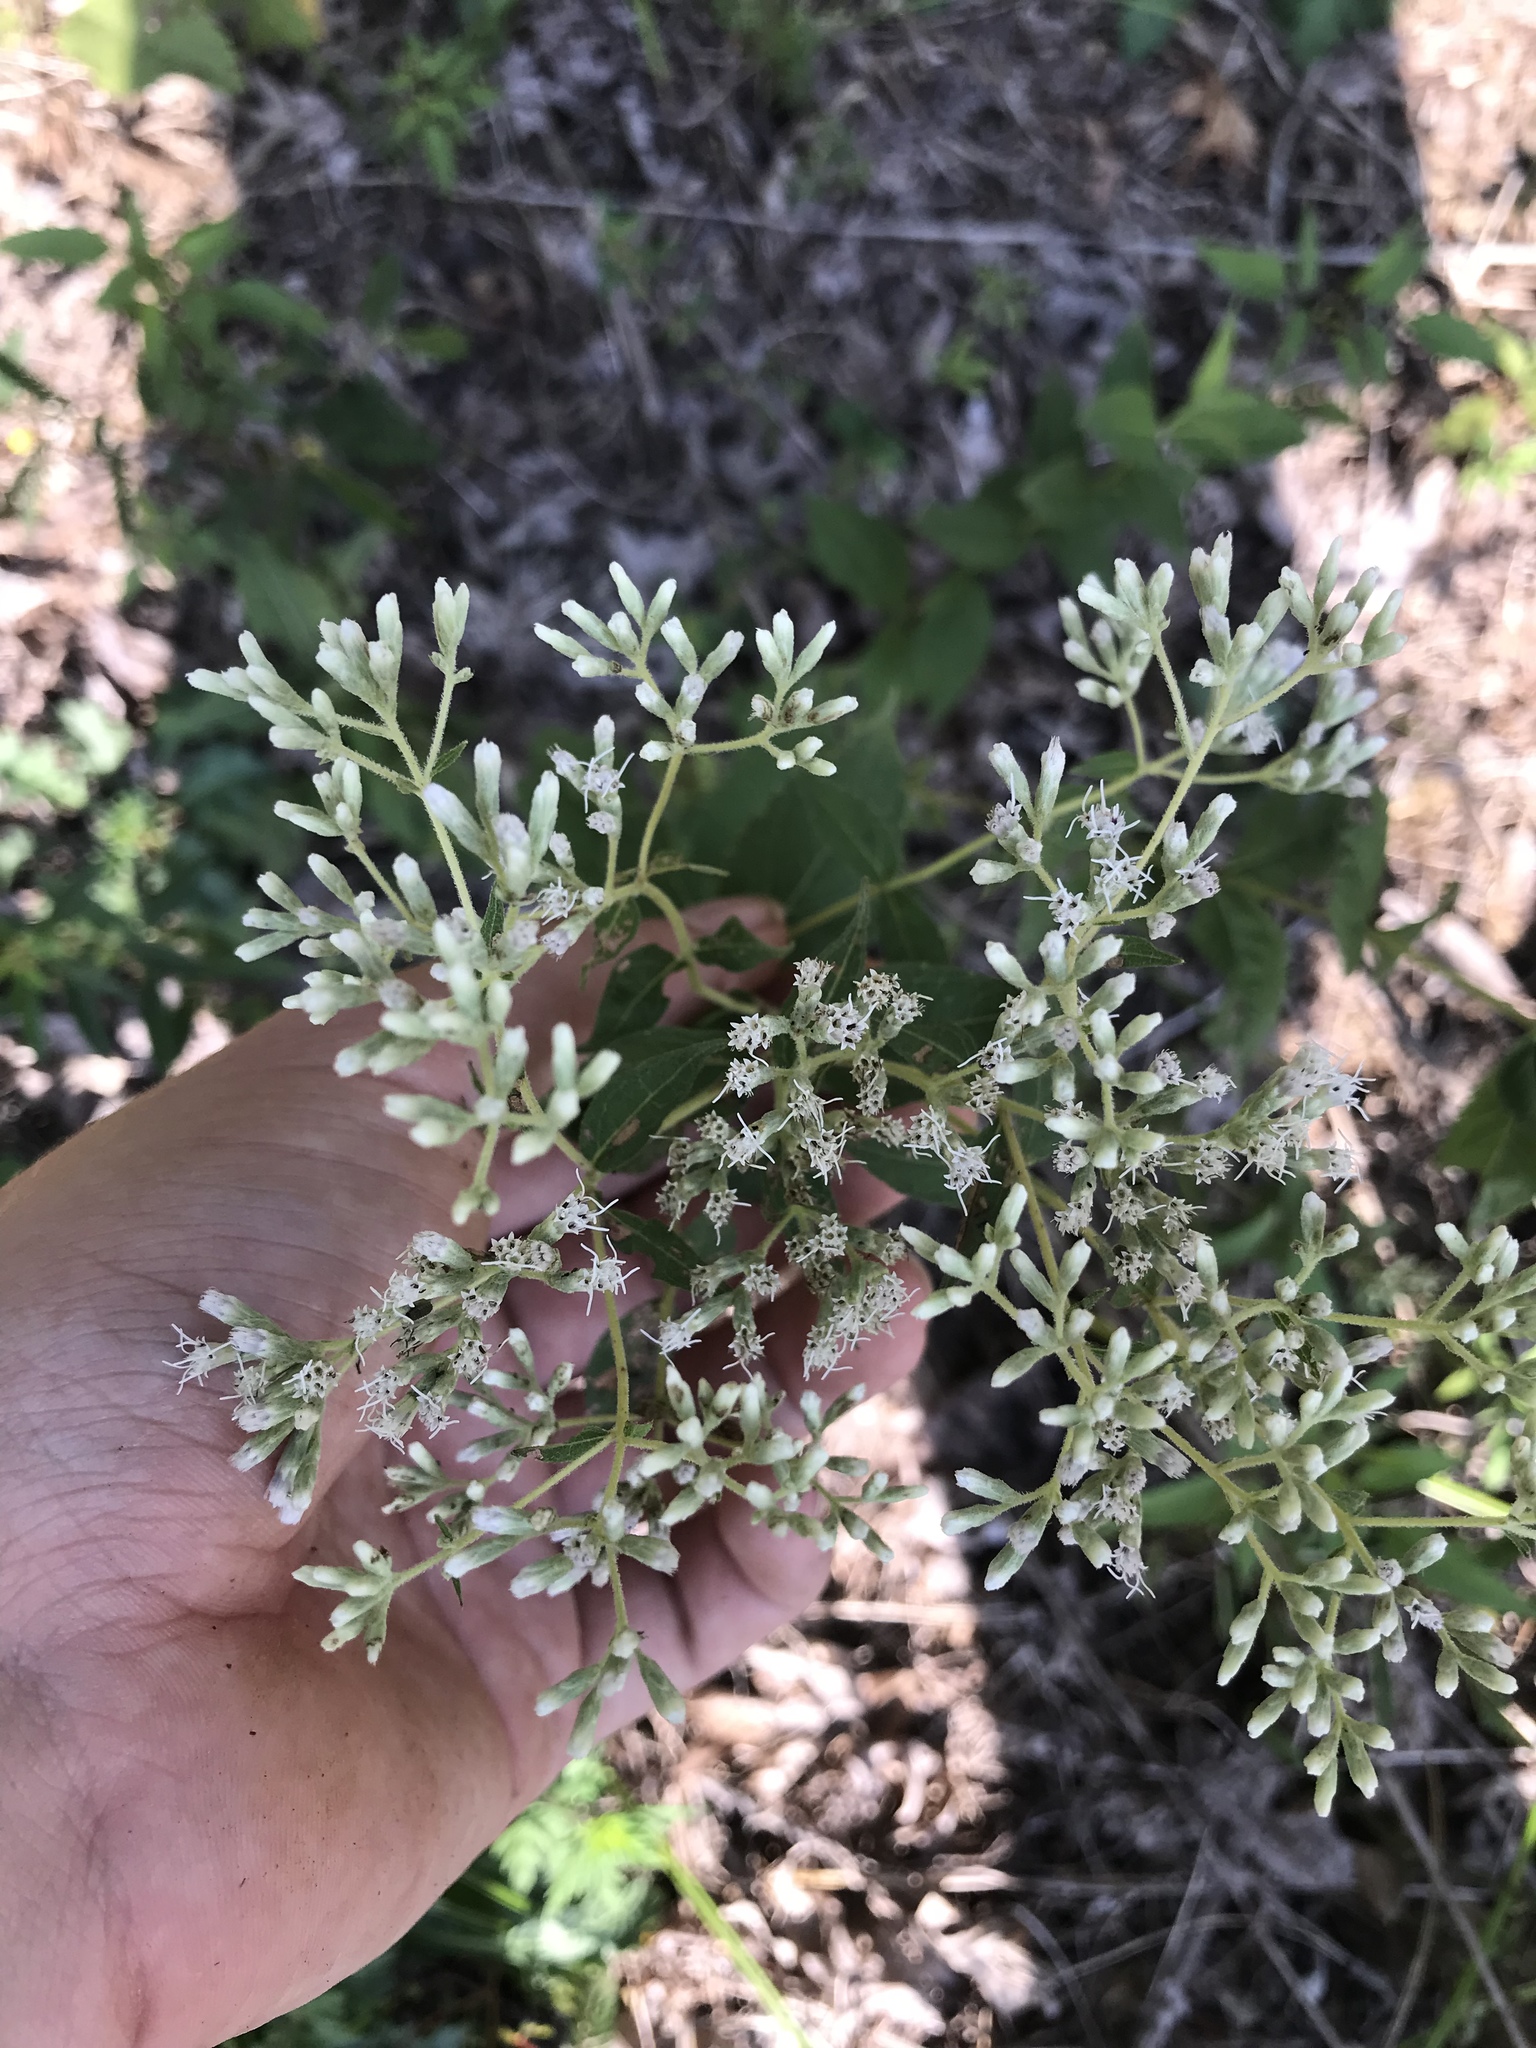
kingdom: Plantae
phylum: Tracheophyta
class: Magnoliopsida
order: Asterales
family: Asteraceae
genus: Eupatorium
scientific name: Eupatorium godfreyanum
